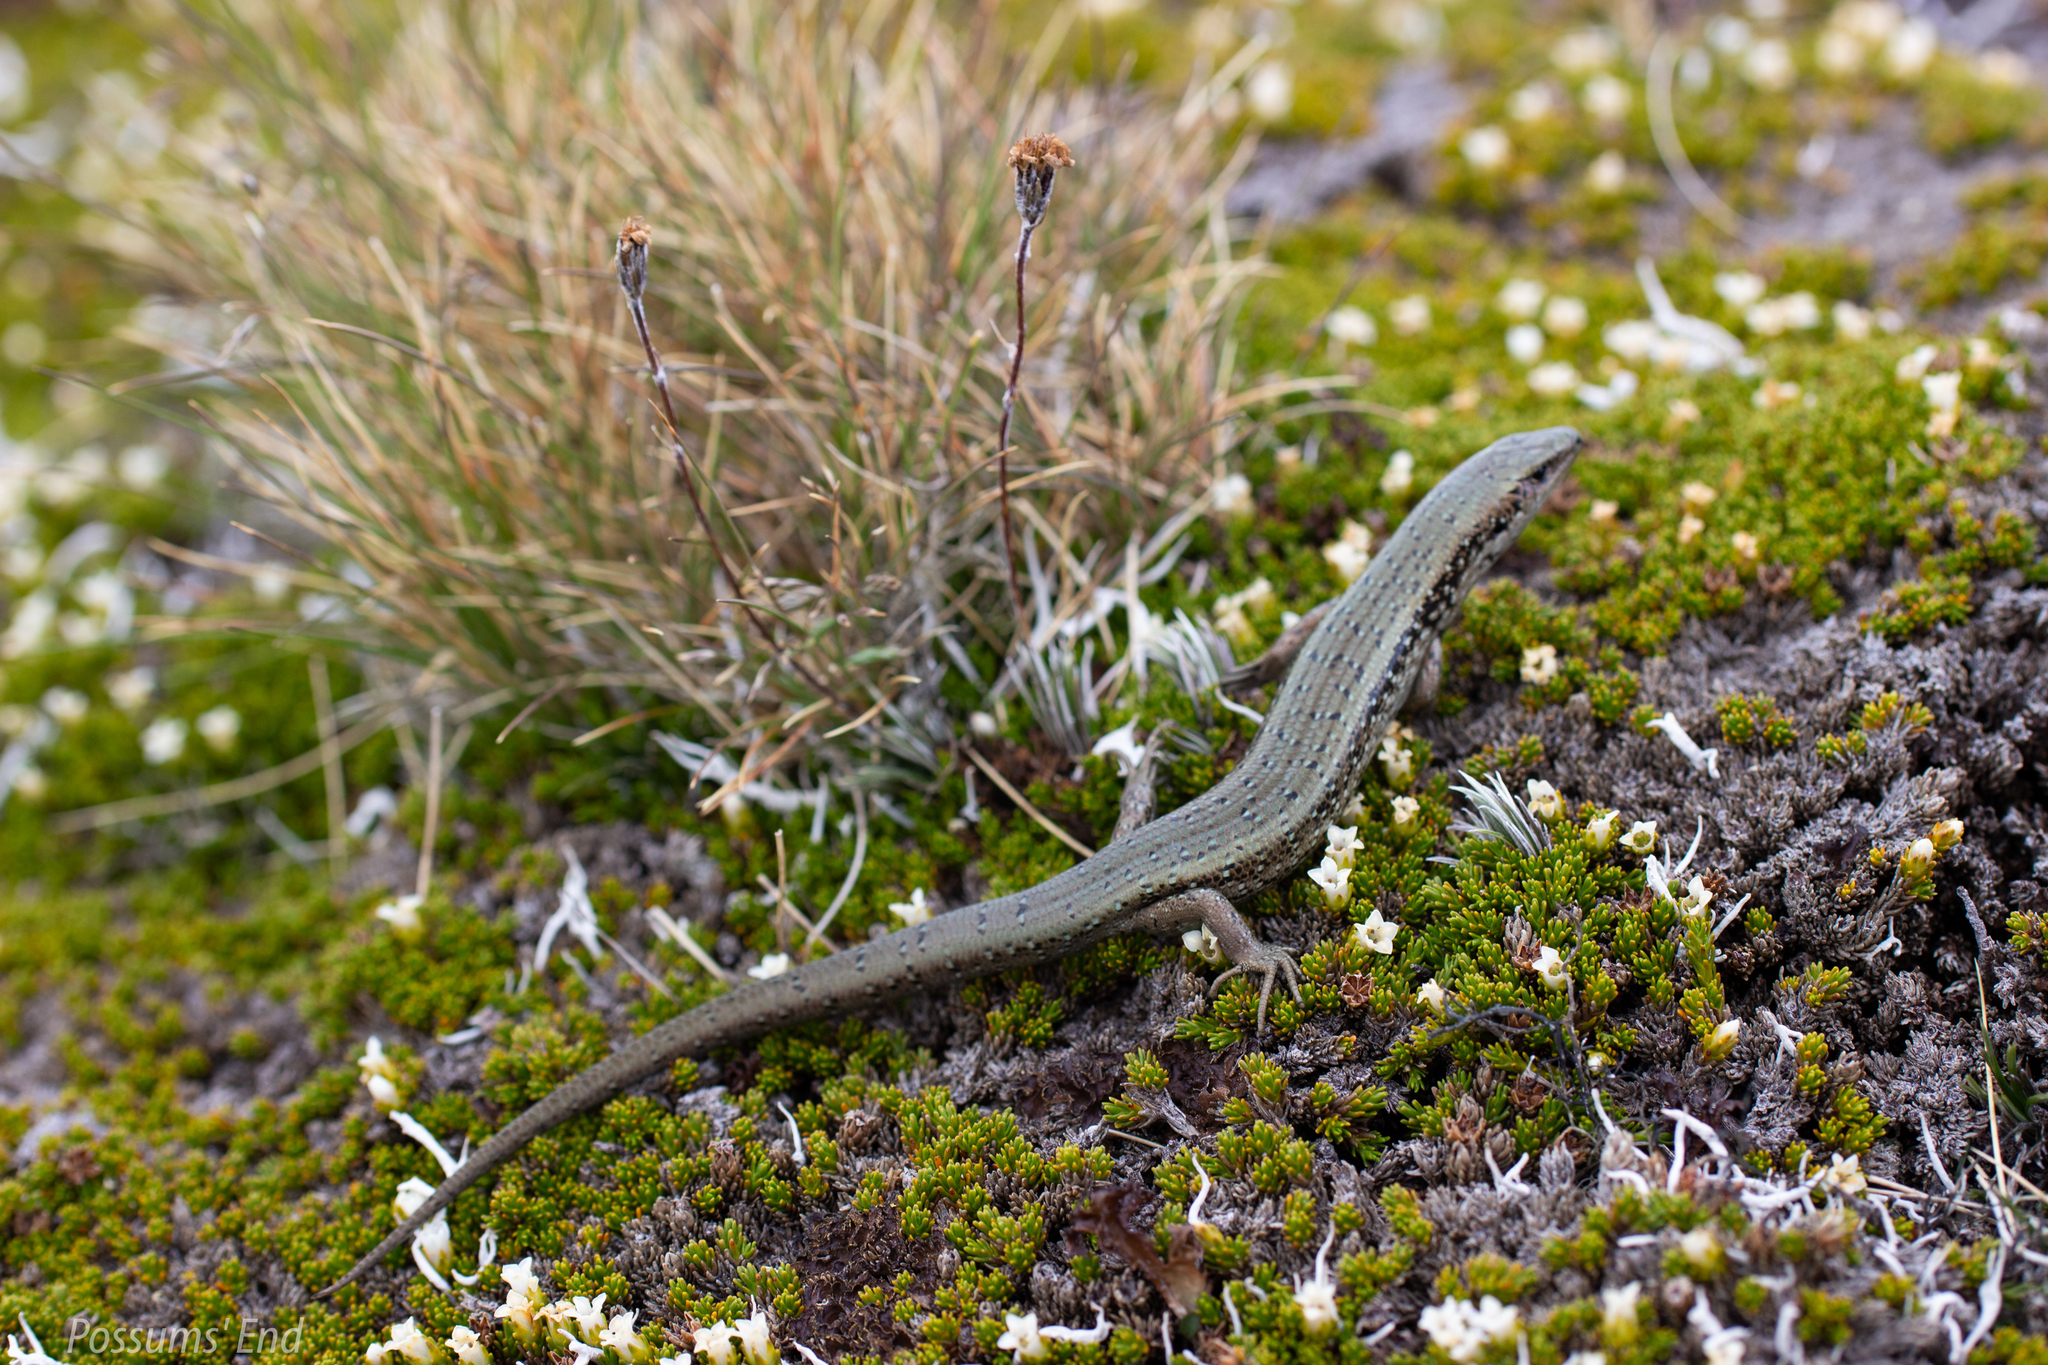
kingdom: Animalia
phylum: Chordata
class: Squamata
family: Scincidae
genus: Oligosoma
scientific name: Oligosoma chloronoton
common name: Green skink
